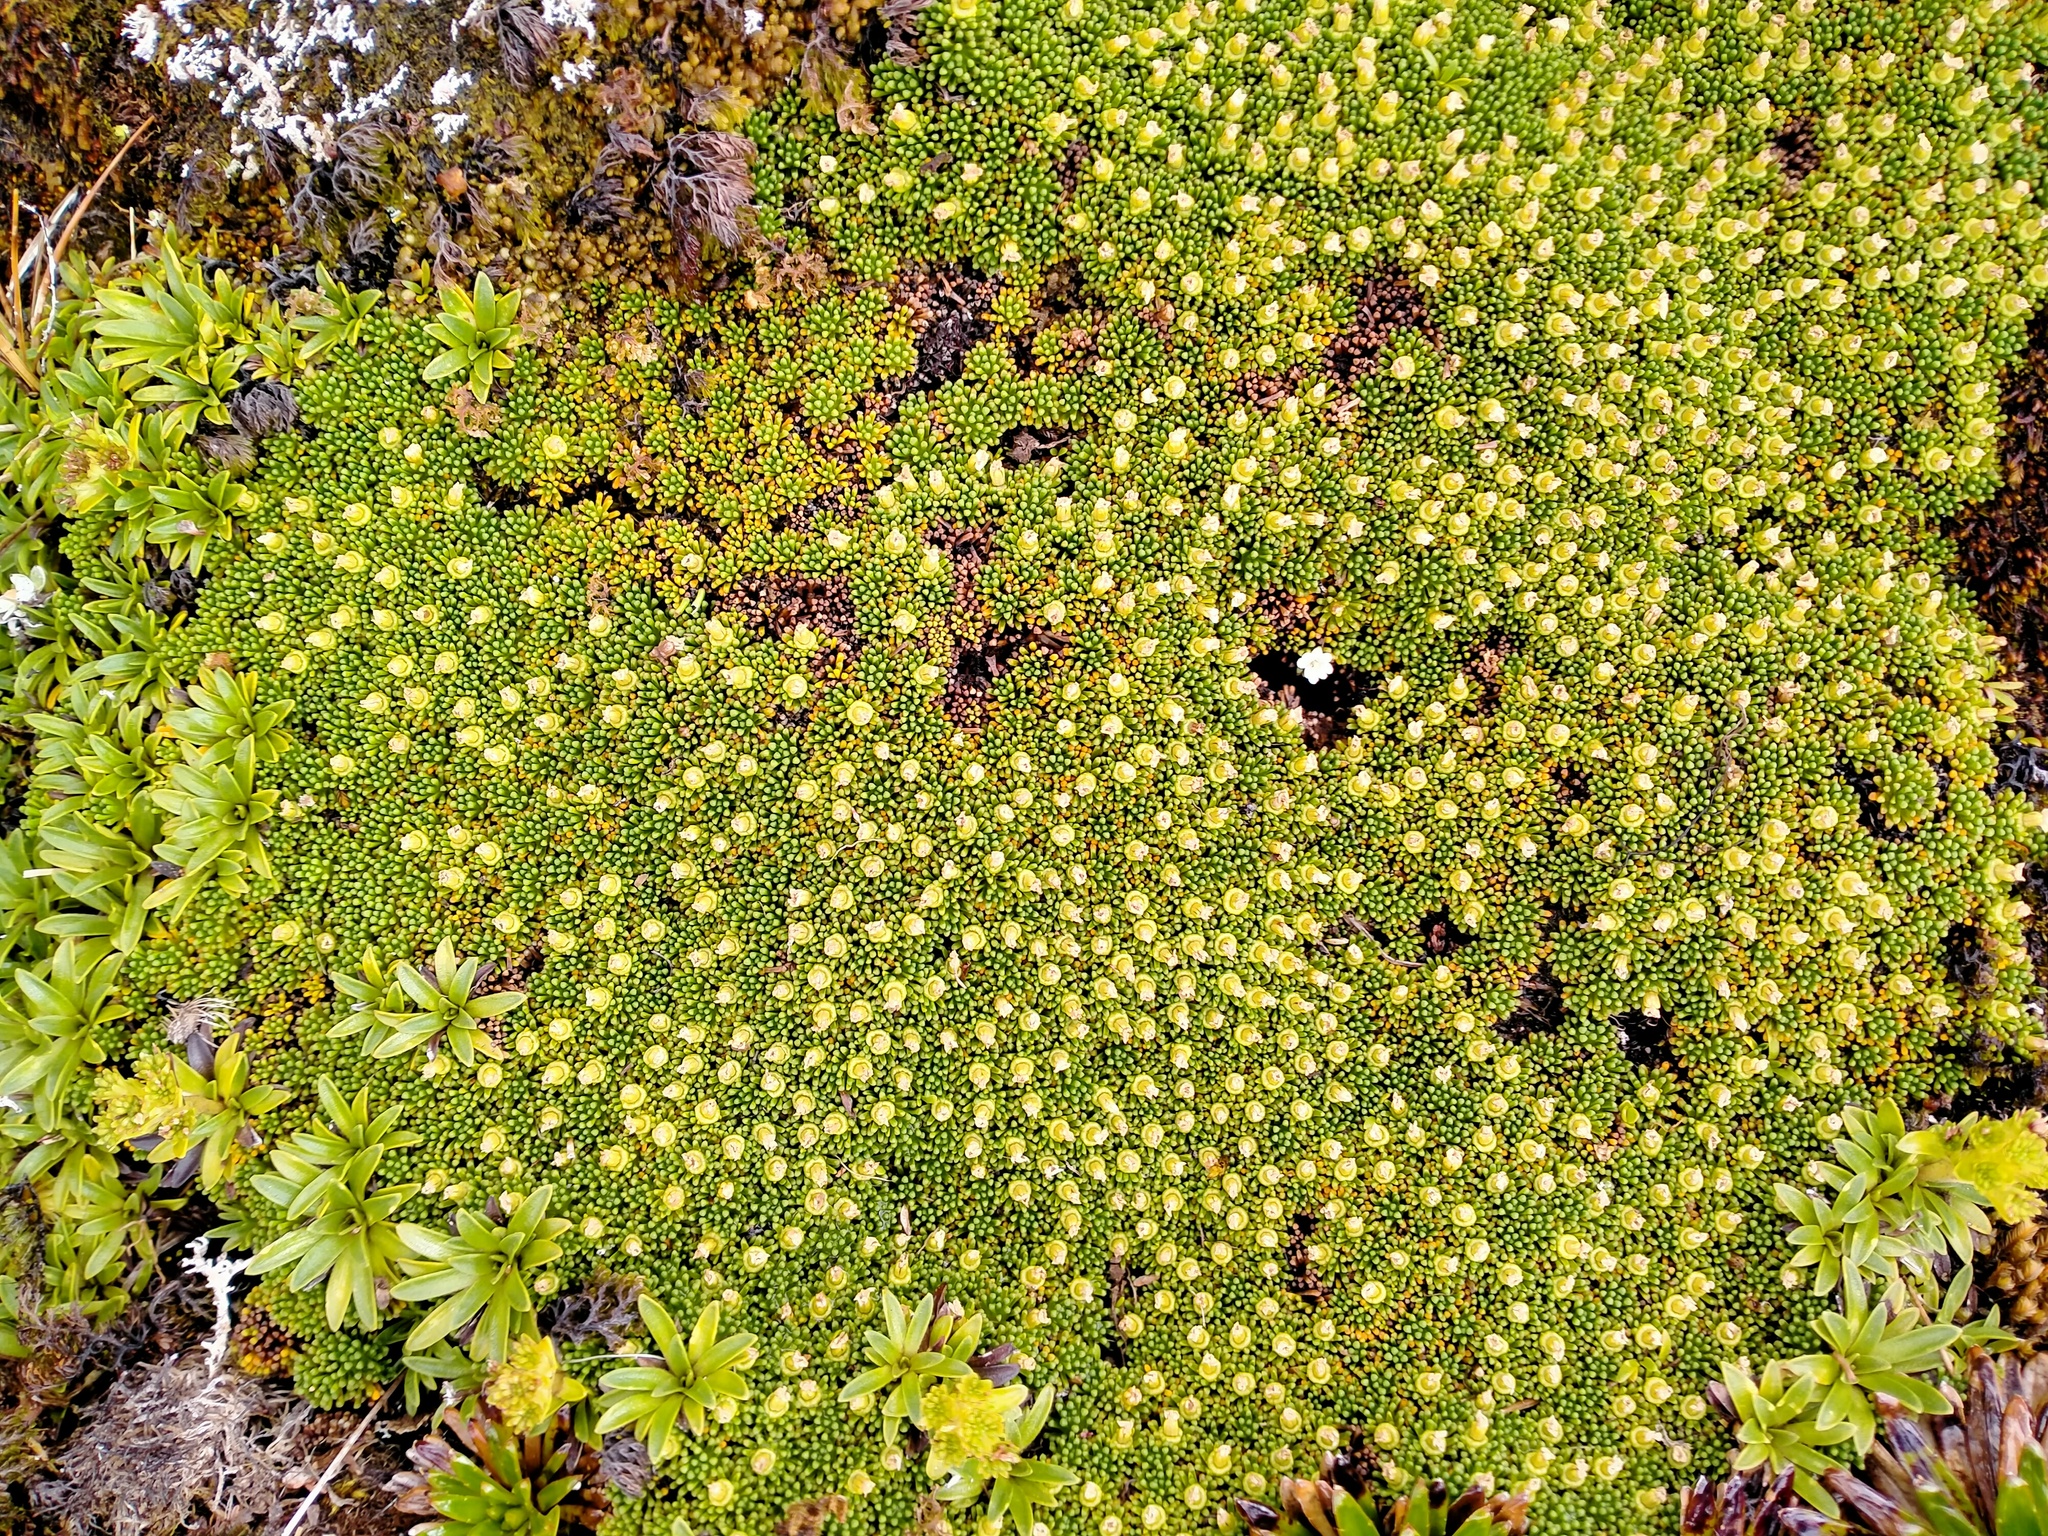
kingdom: Plantae
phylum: Tracheophyta
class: Magnoliopsida
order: Asterales
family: Stylidiaceae
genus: Phyllachne
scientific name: Phyllachne colensoi
